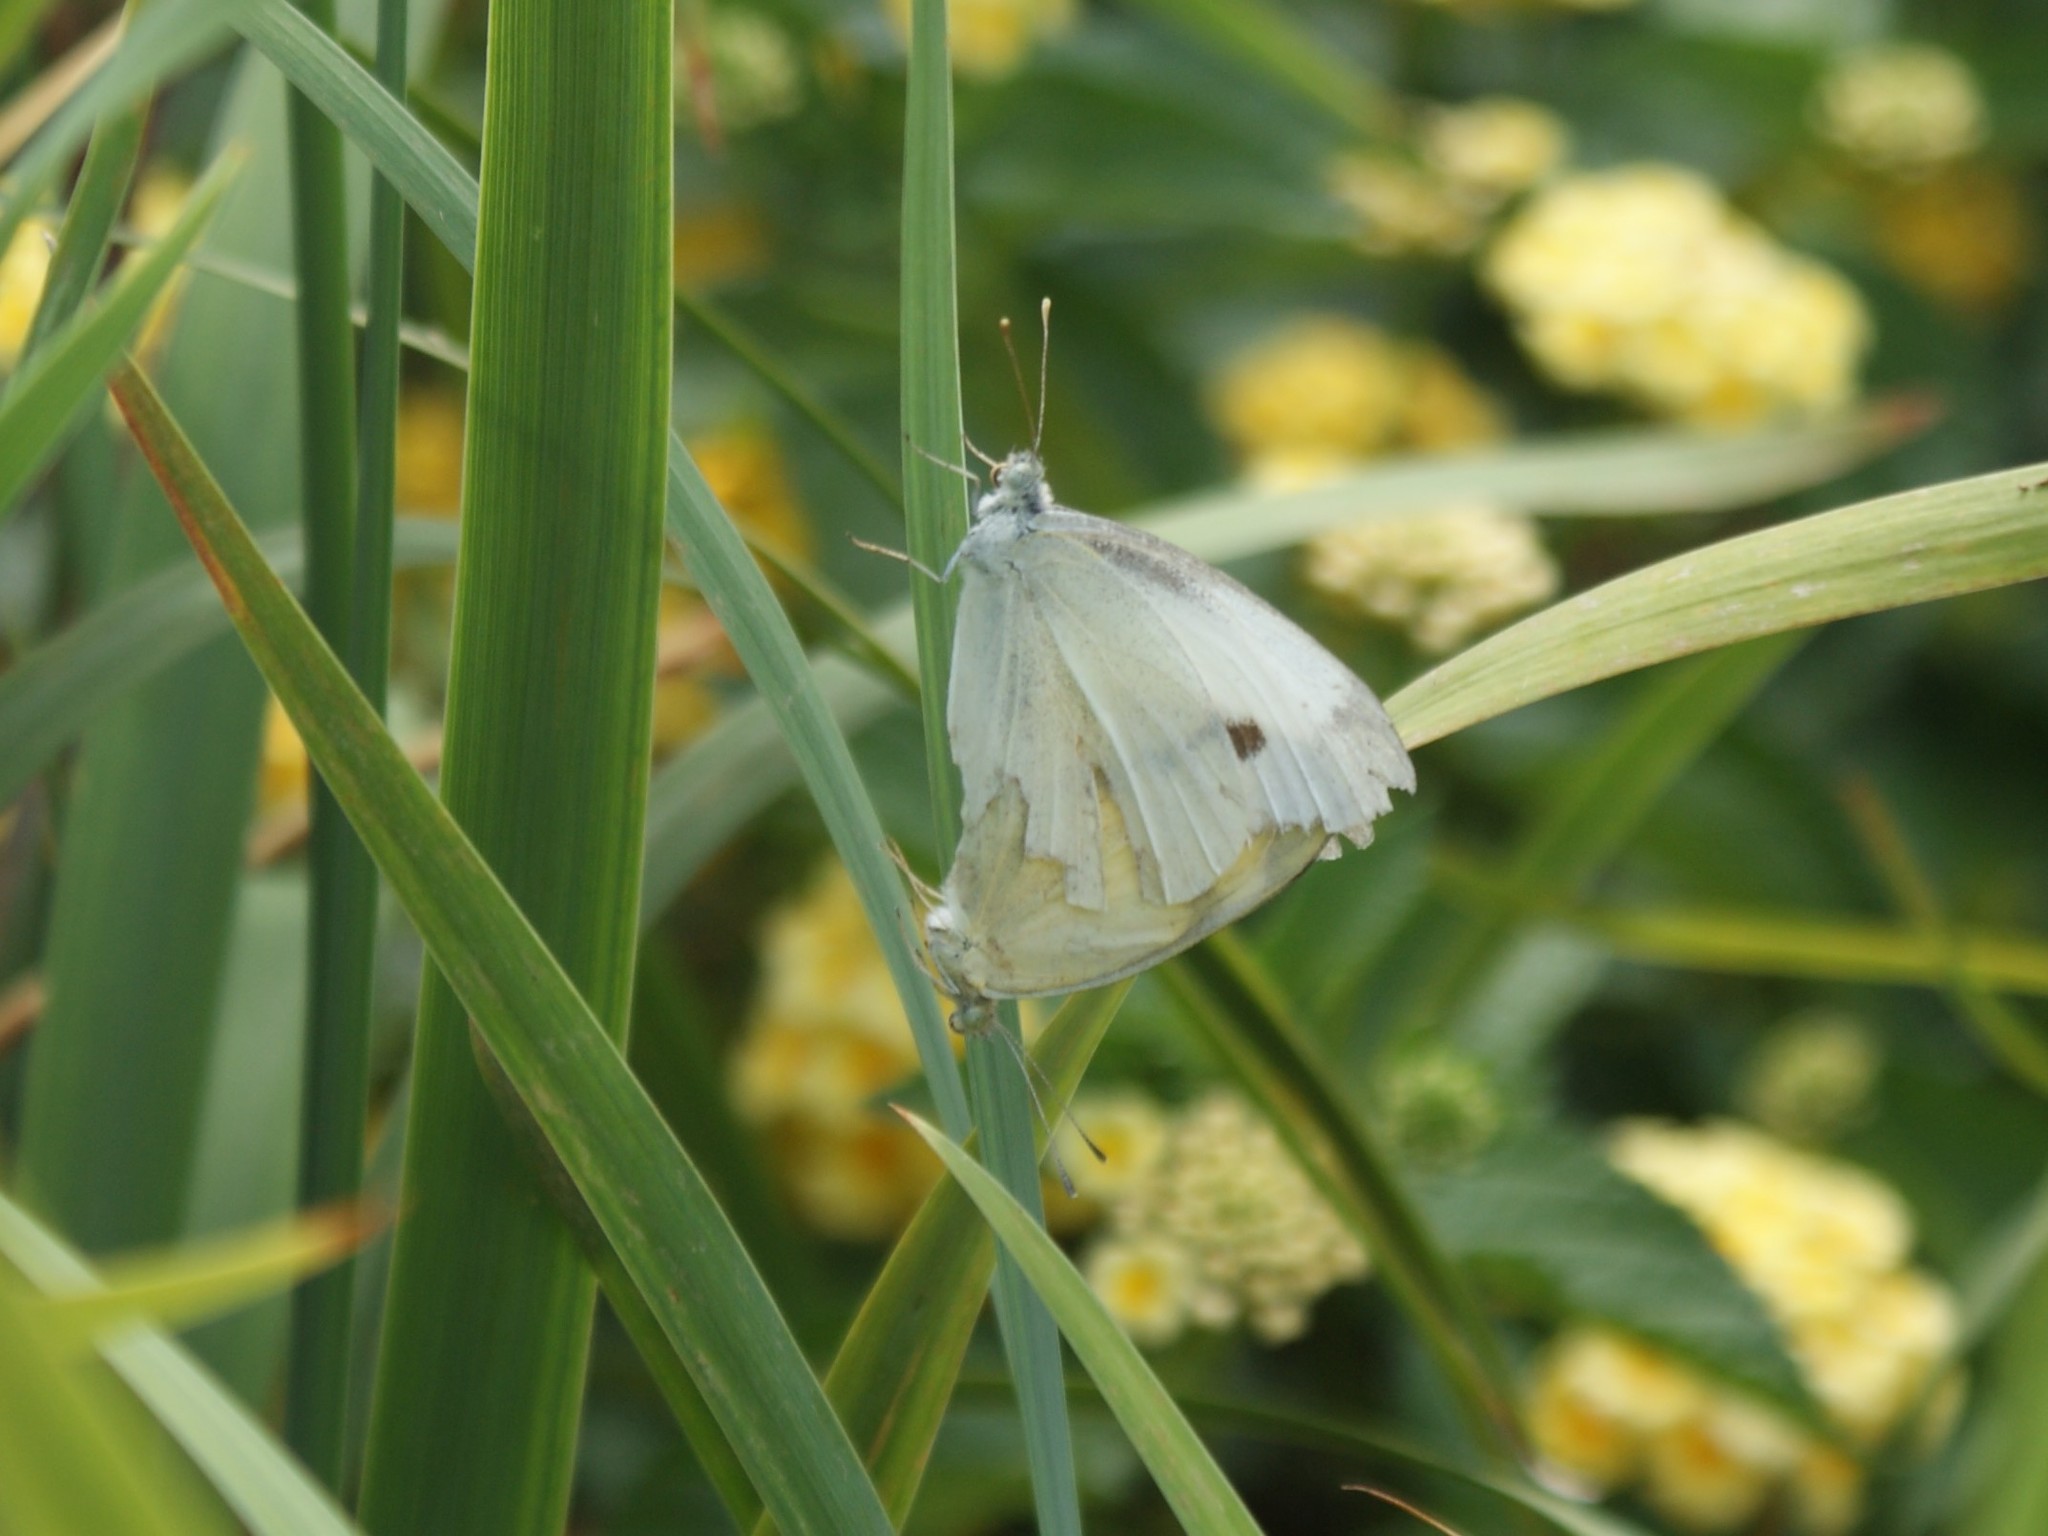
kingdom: Animalia
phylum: Arthropoda
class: Insecta
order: Lepidoptera
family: Pieridae
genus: Pieris
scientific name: Pieris rapae
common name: Small white
